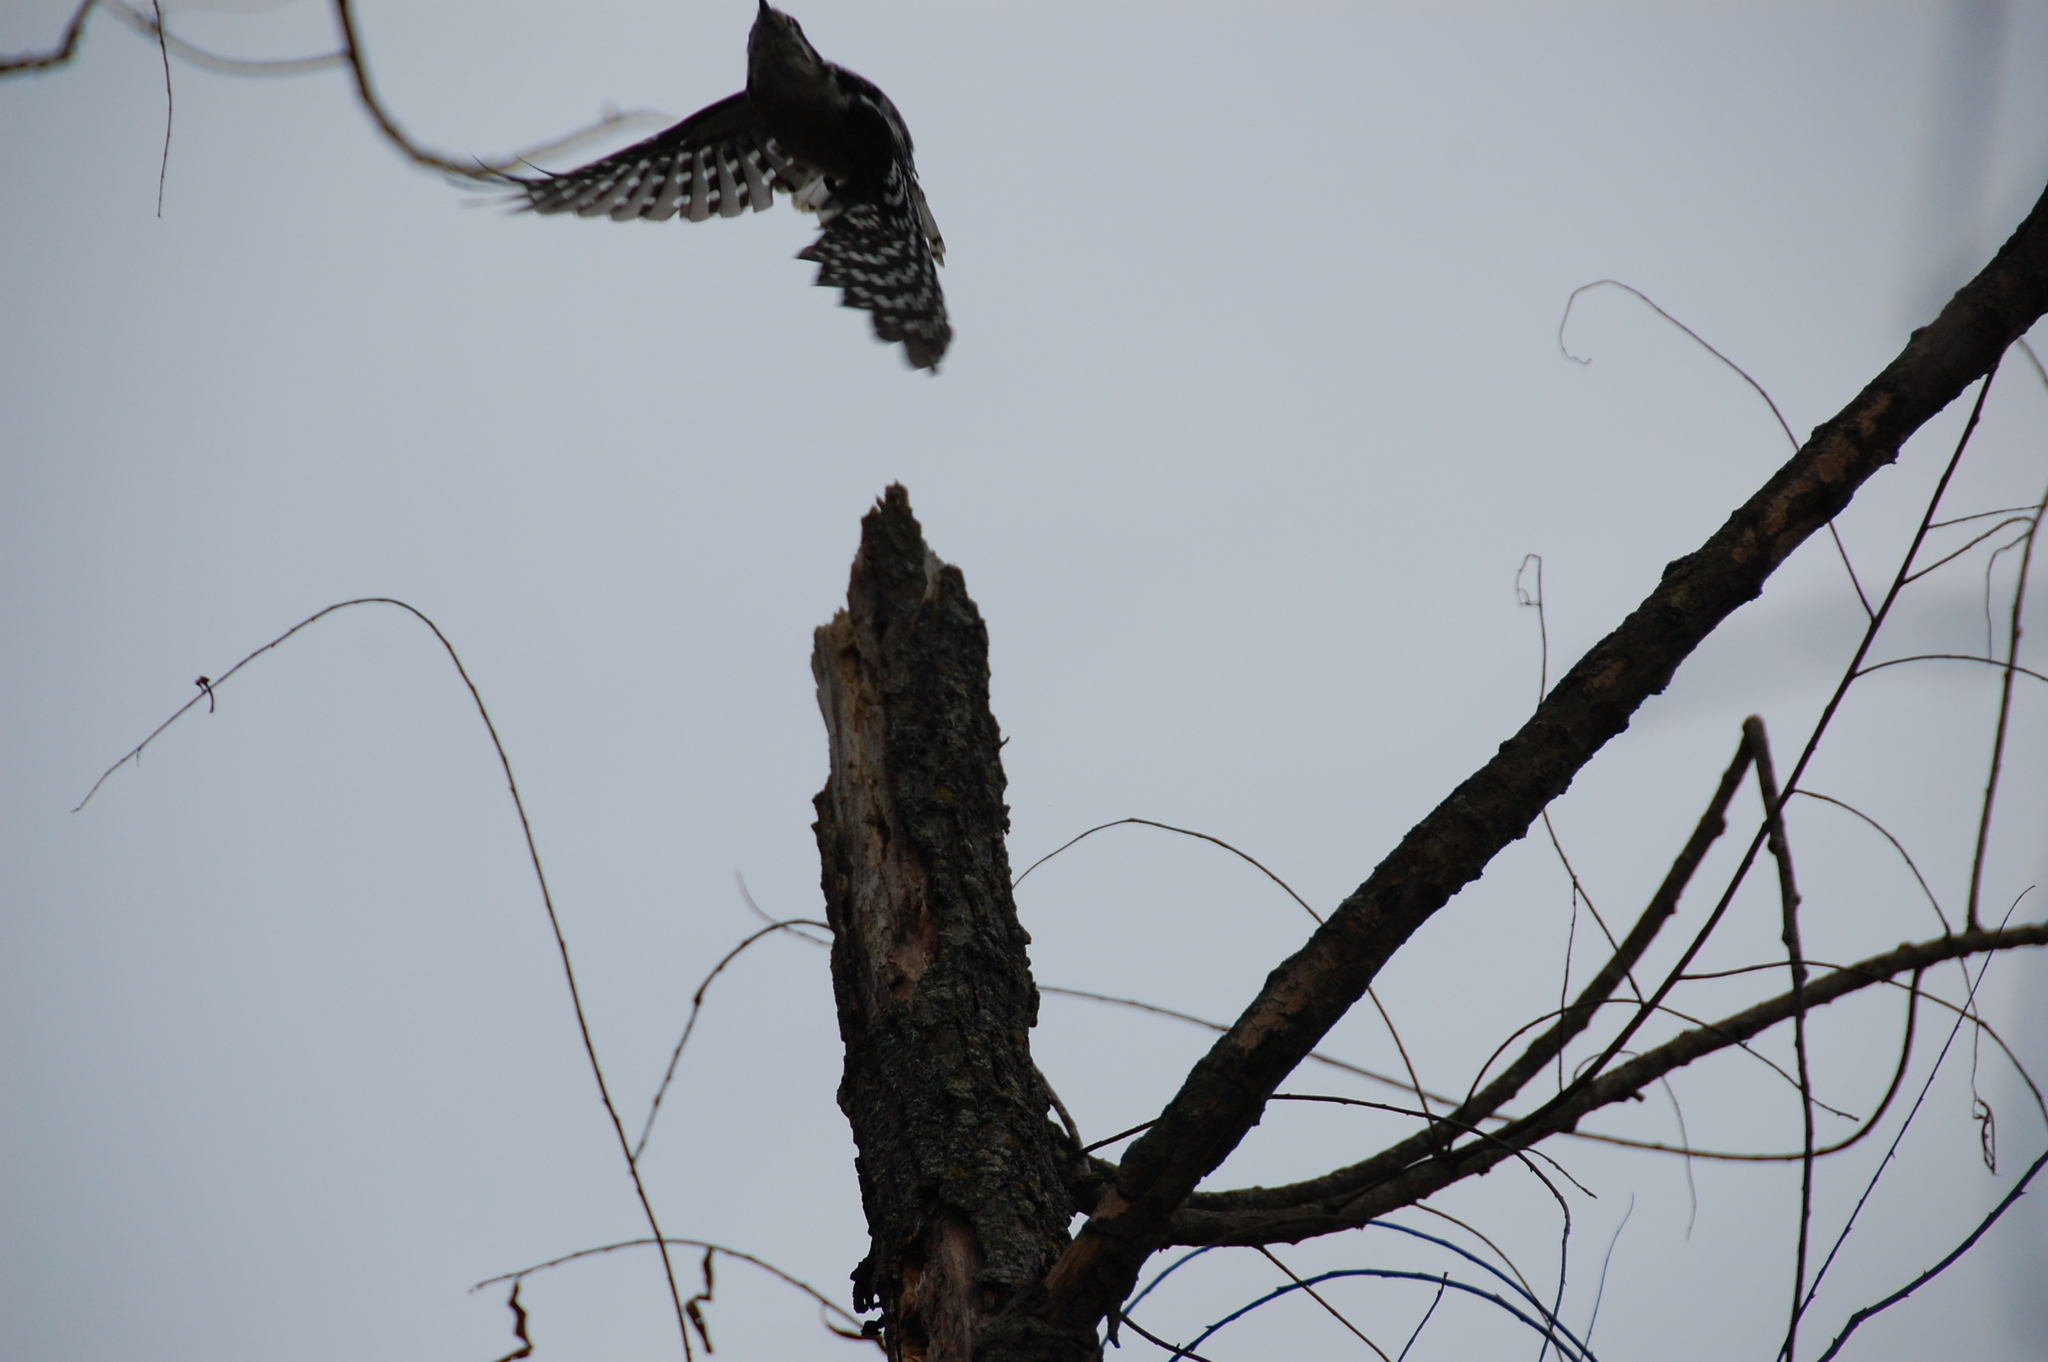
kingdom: Animalia
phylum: Chordata
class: Aves
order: Piciformes
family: Picidae
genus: Dryobates
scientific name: Dryobates pubescens
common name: Downy woodpecker
